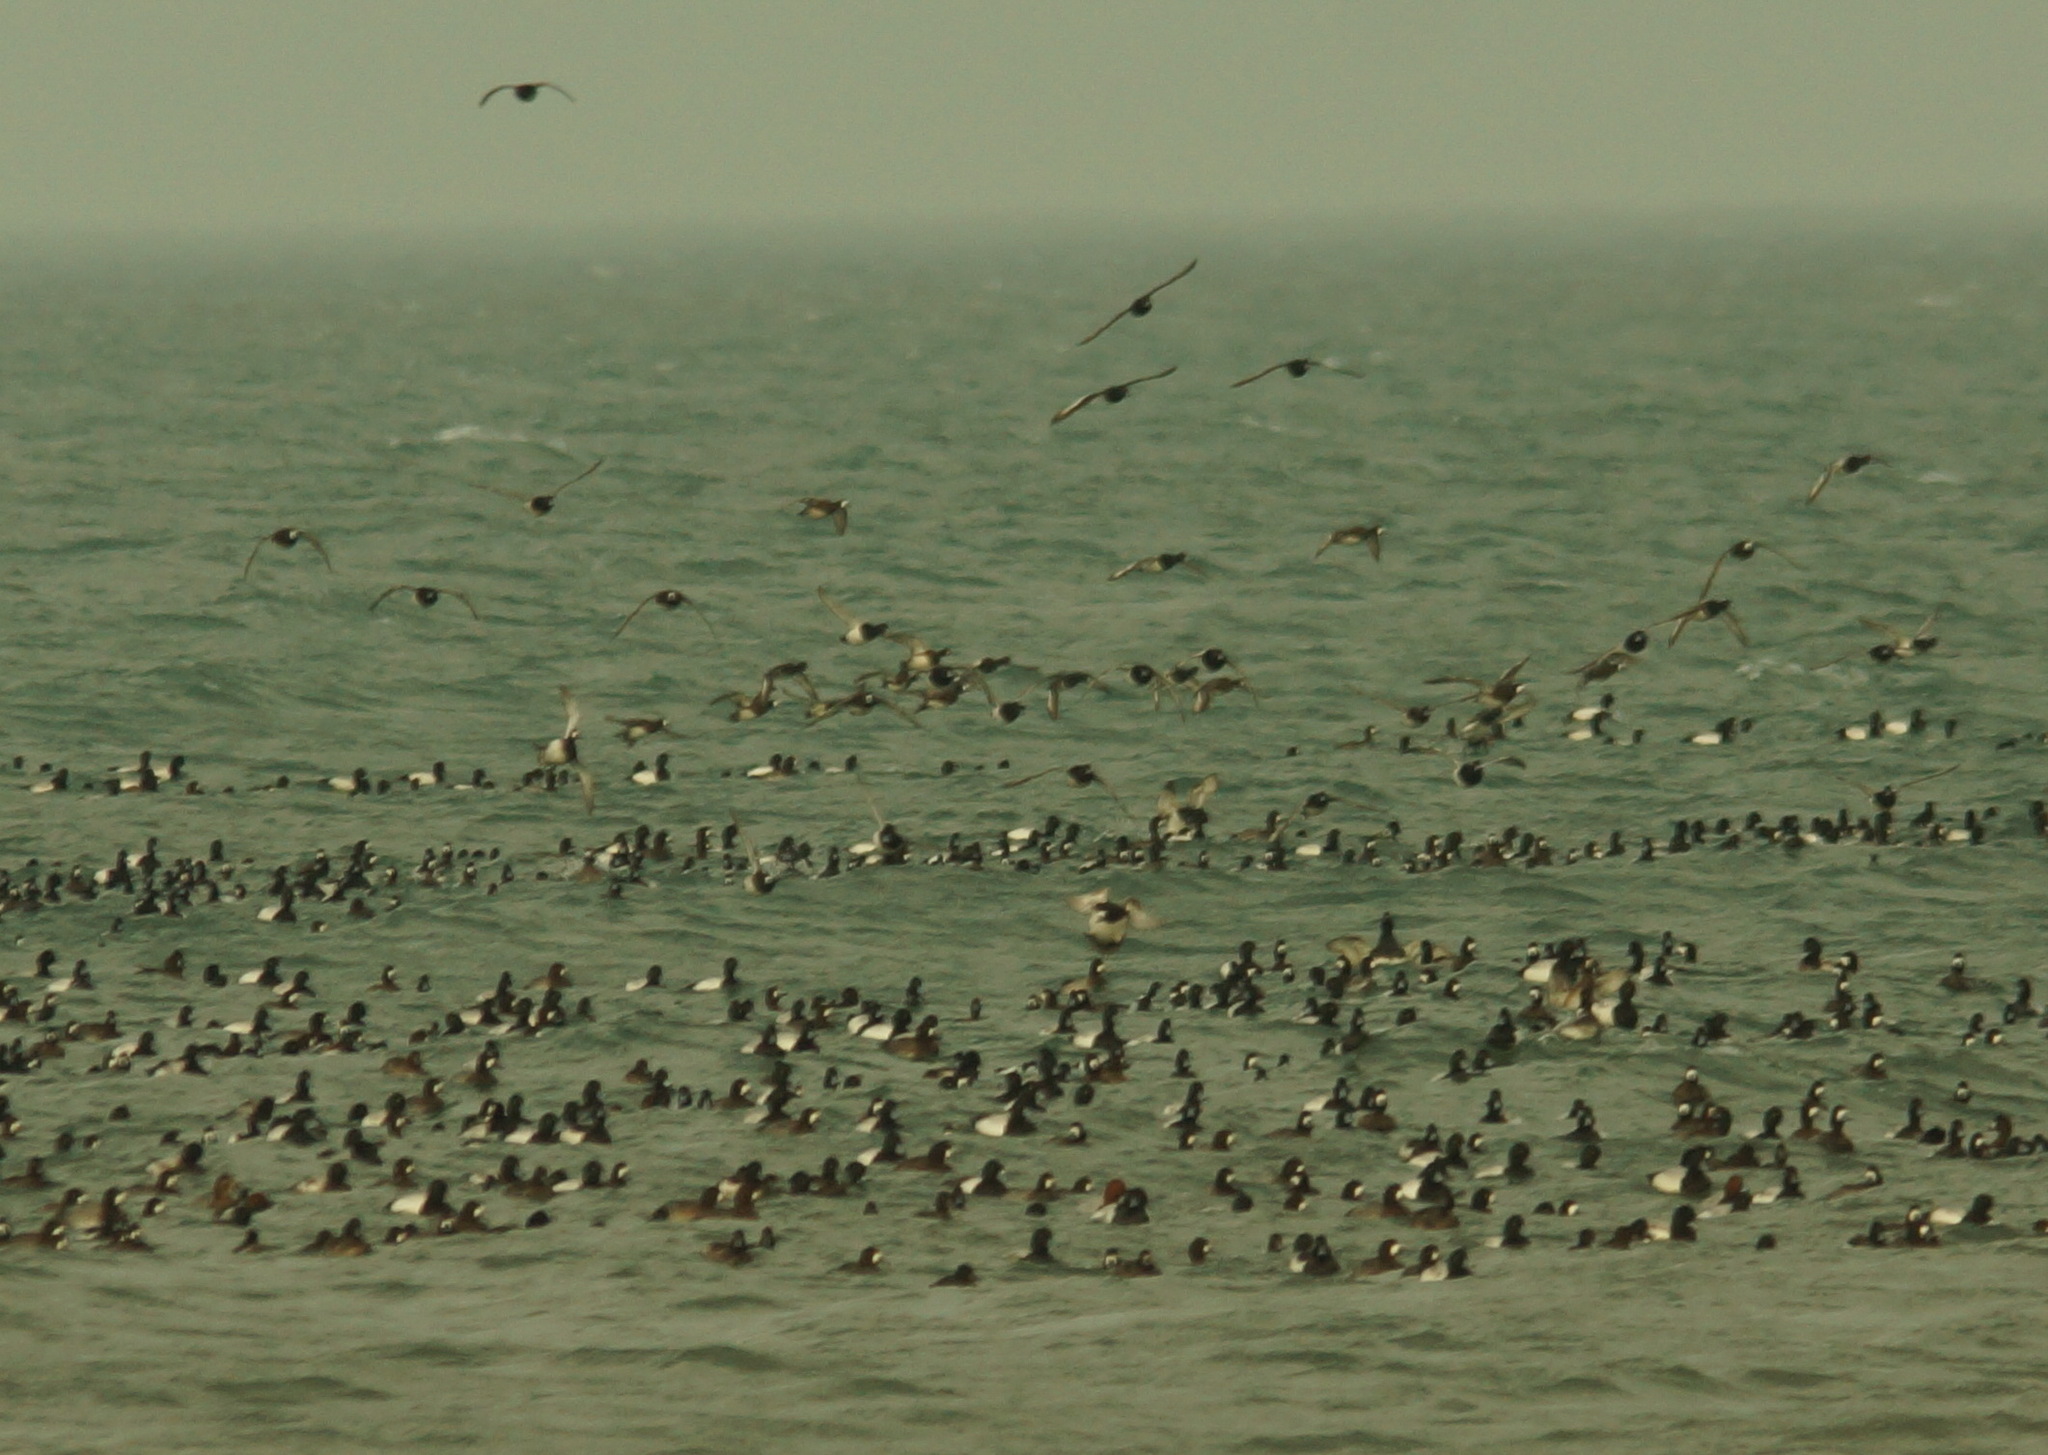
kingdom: Animalia
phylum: Chordata
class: Aves
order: Anseriformes
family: Anatidae
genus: Aythya
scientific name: Aythya marila
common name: Greater scaup
